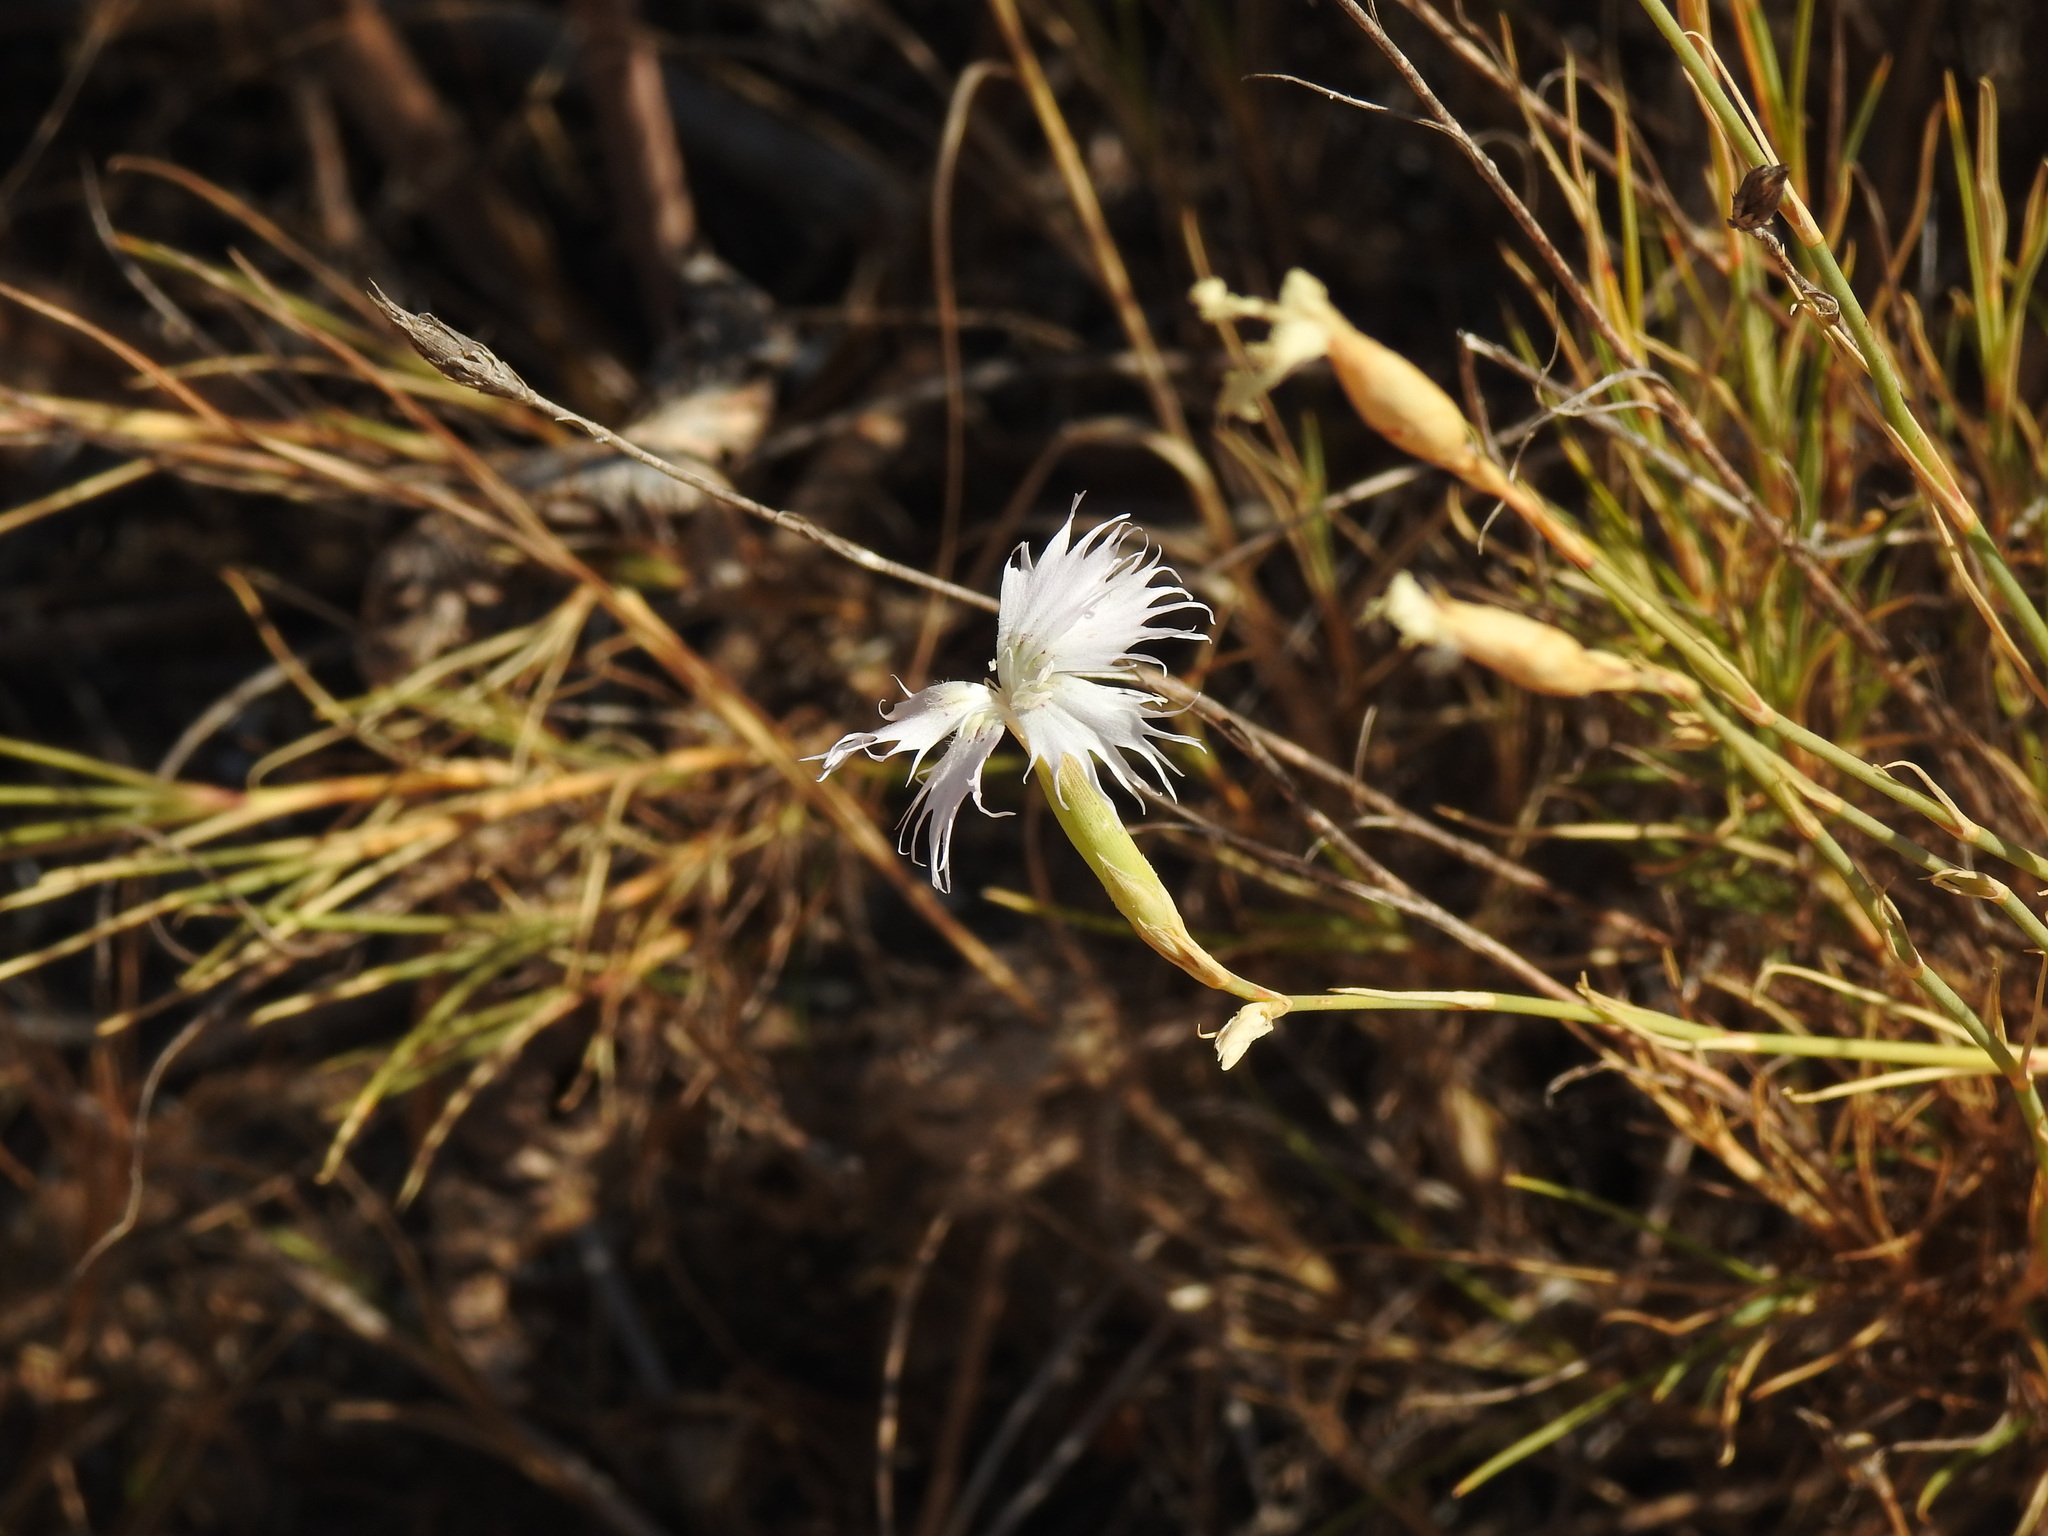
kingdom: Plantae
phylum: Tracheophyta
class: Magnoliopsida
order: Caryophyllales
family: Caryophyllaceae
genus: Dianthus
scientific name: Dianthus broteri
